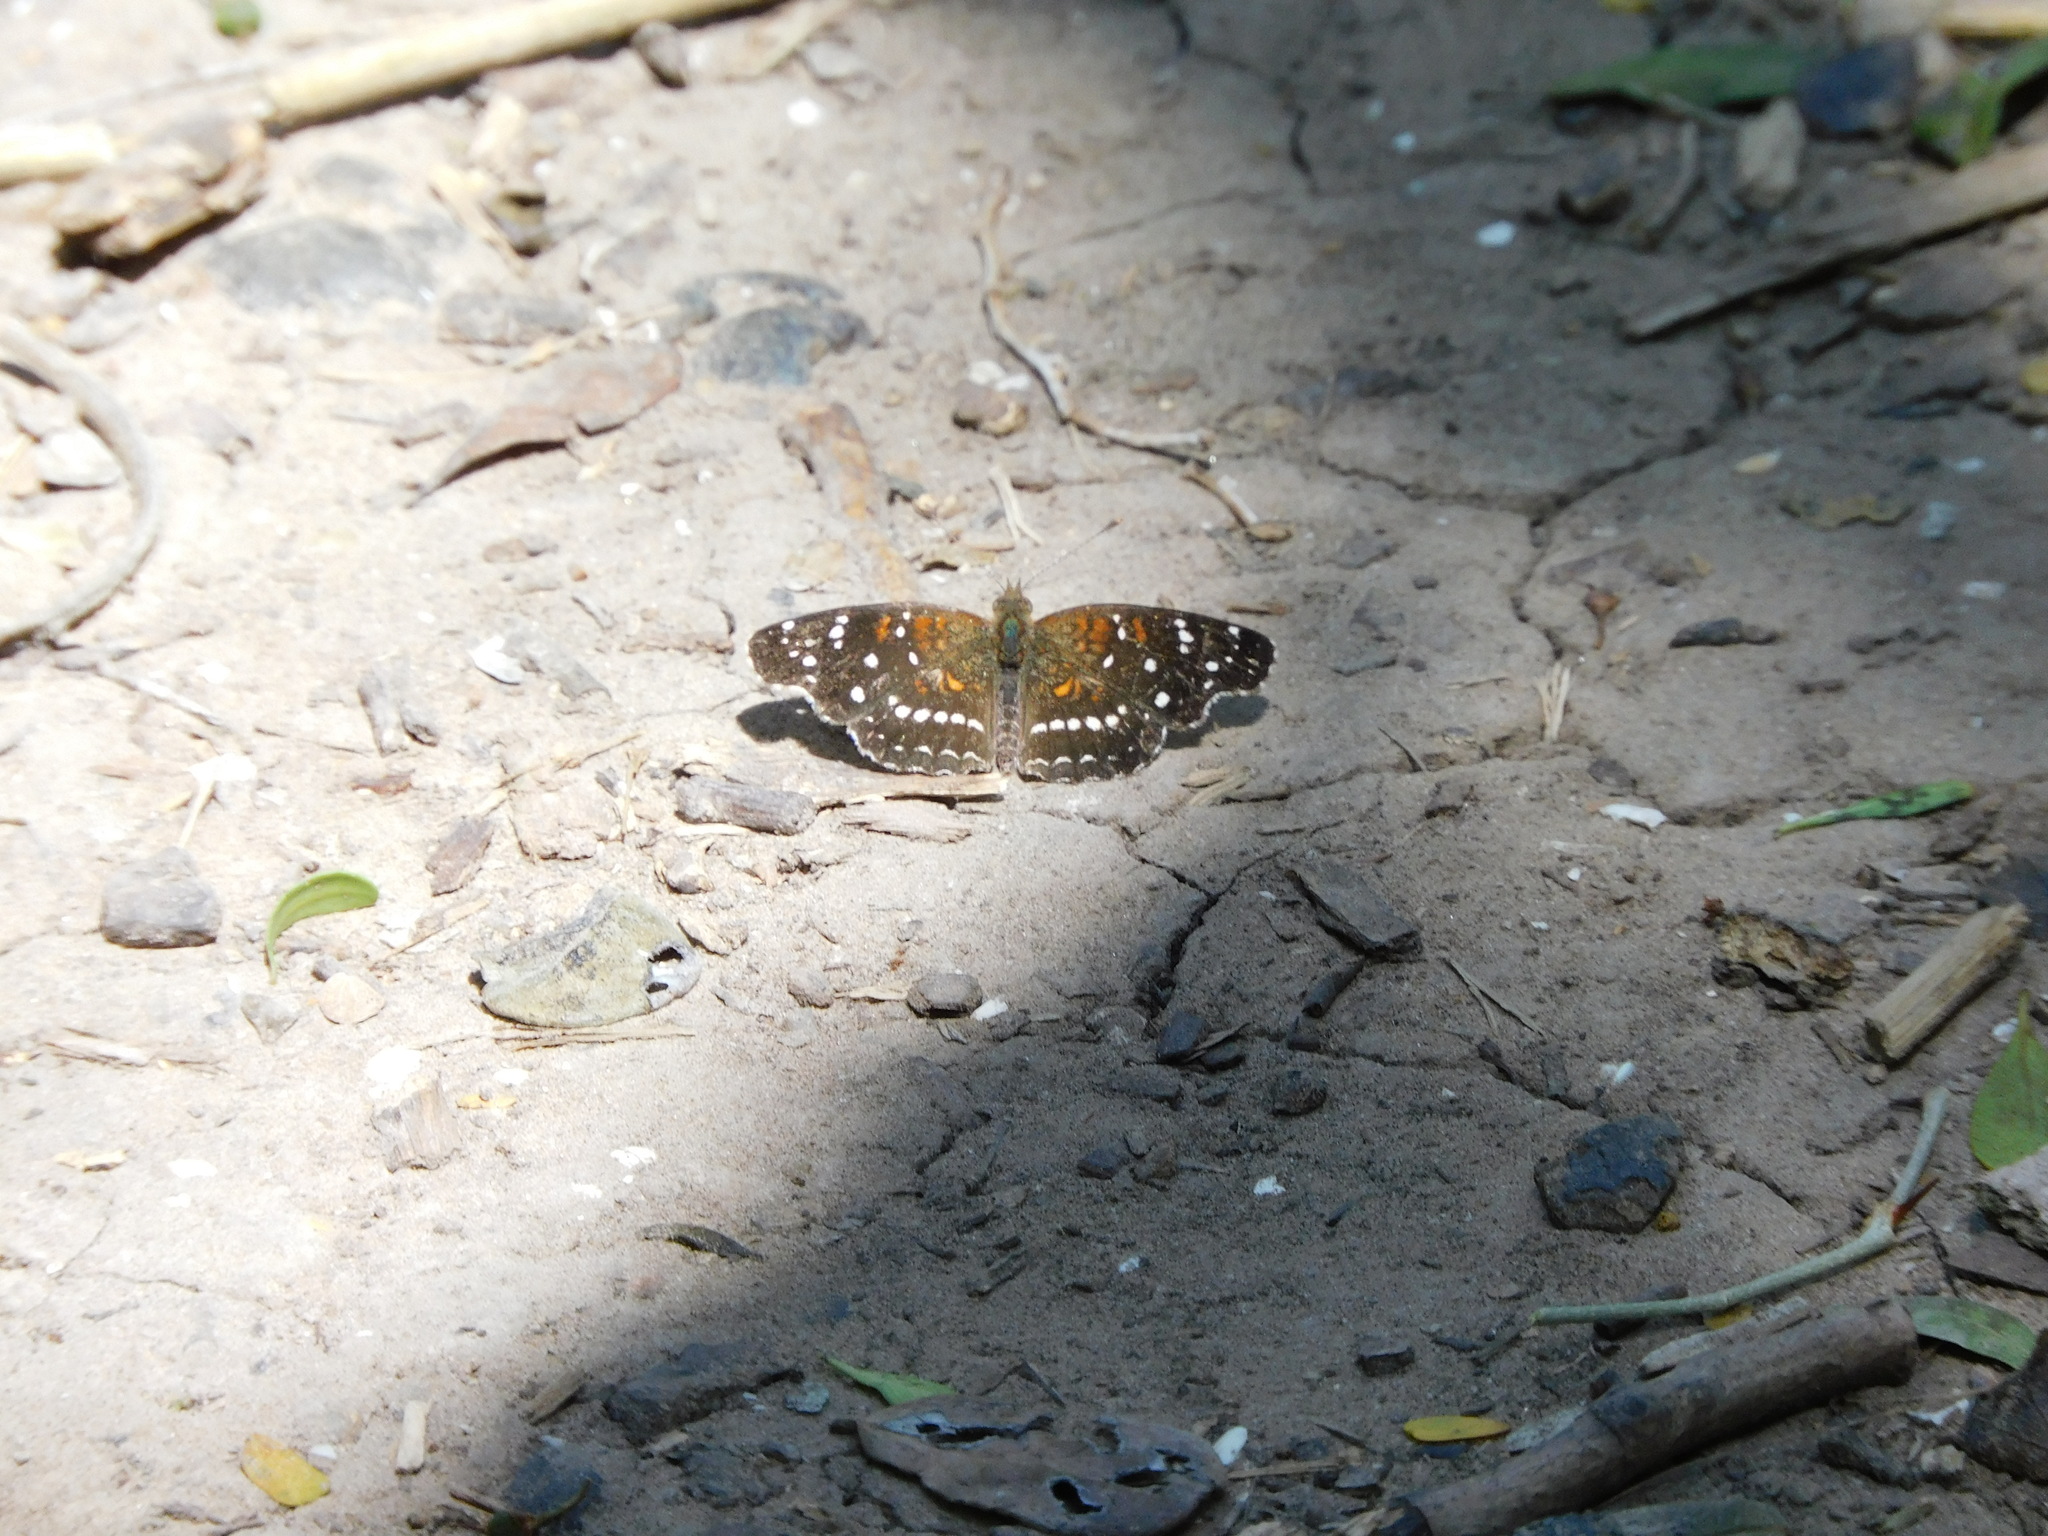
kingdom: Animalia
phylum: Arthropoda
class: Insecta
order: Lepidoptera
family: Nymphalidae
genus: Anthanassa
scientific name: Anthanassa texana
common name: Texan crescent
